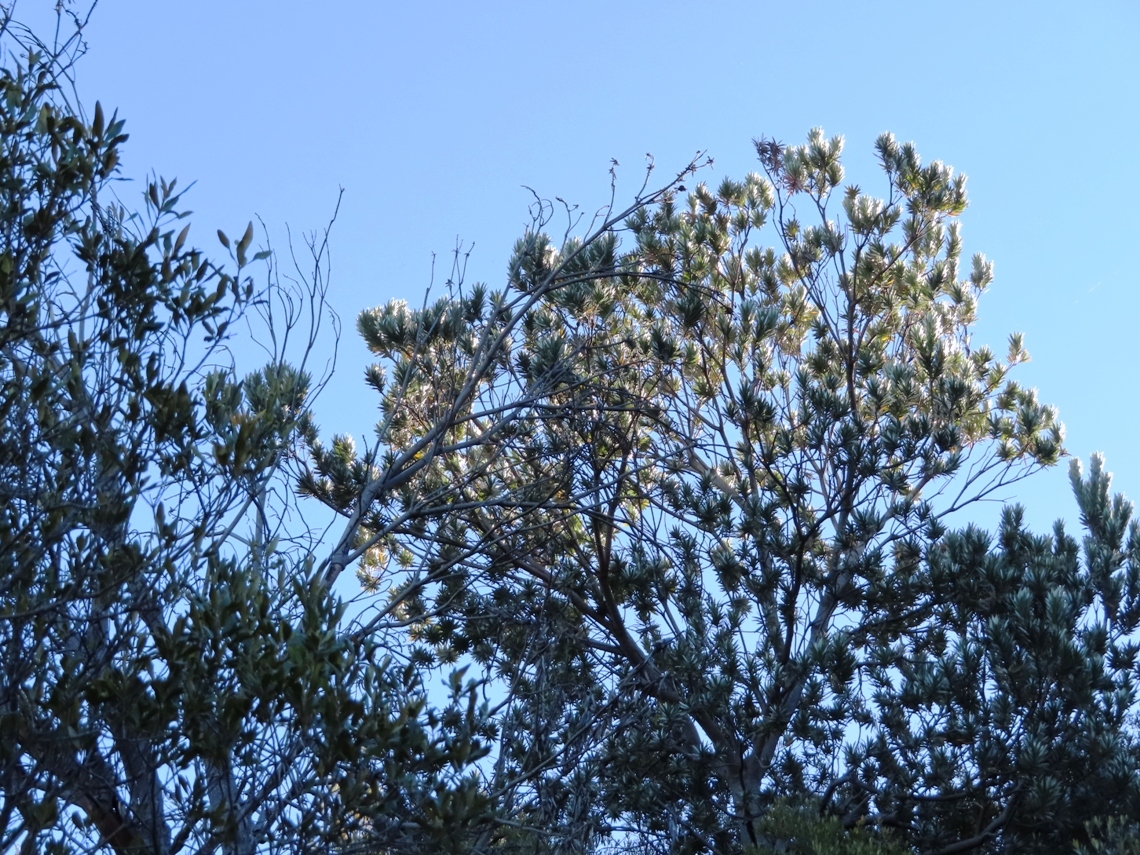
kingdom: Plantae
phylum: Tracheophyta
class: Magnoliopsida
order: Proteales
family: Proteaceae
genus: Leucadendron
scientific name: Leucadendron argenteum
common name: Cape silver tree
